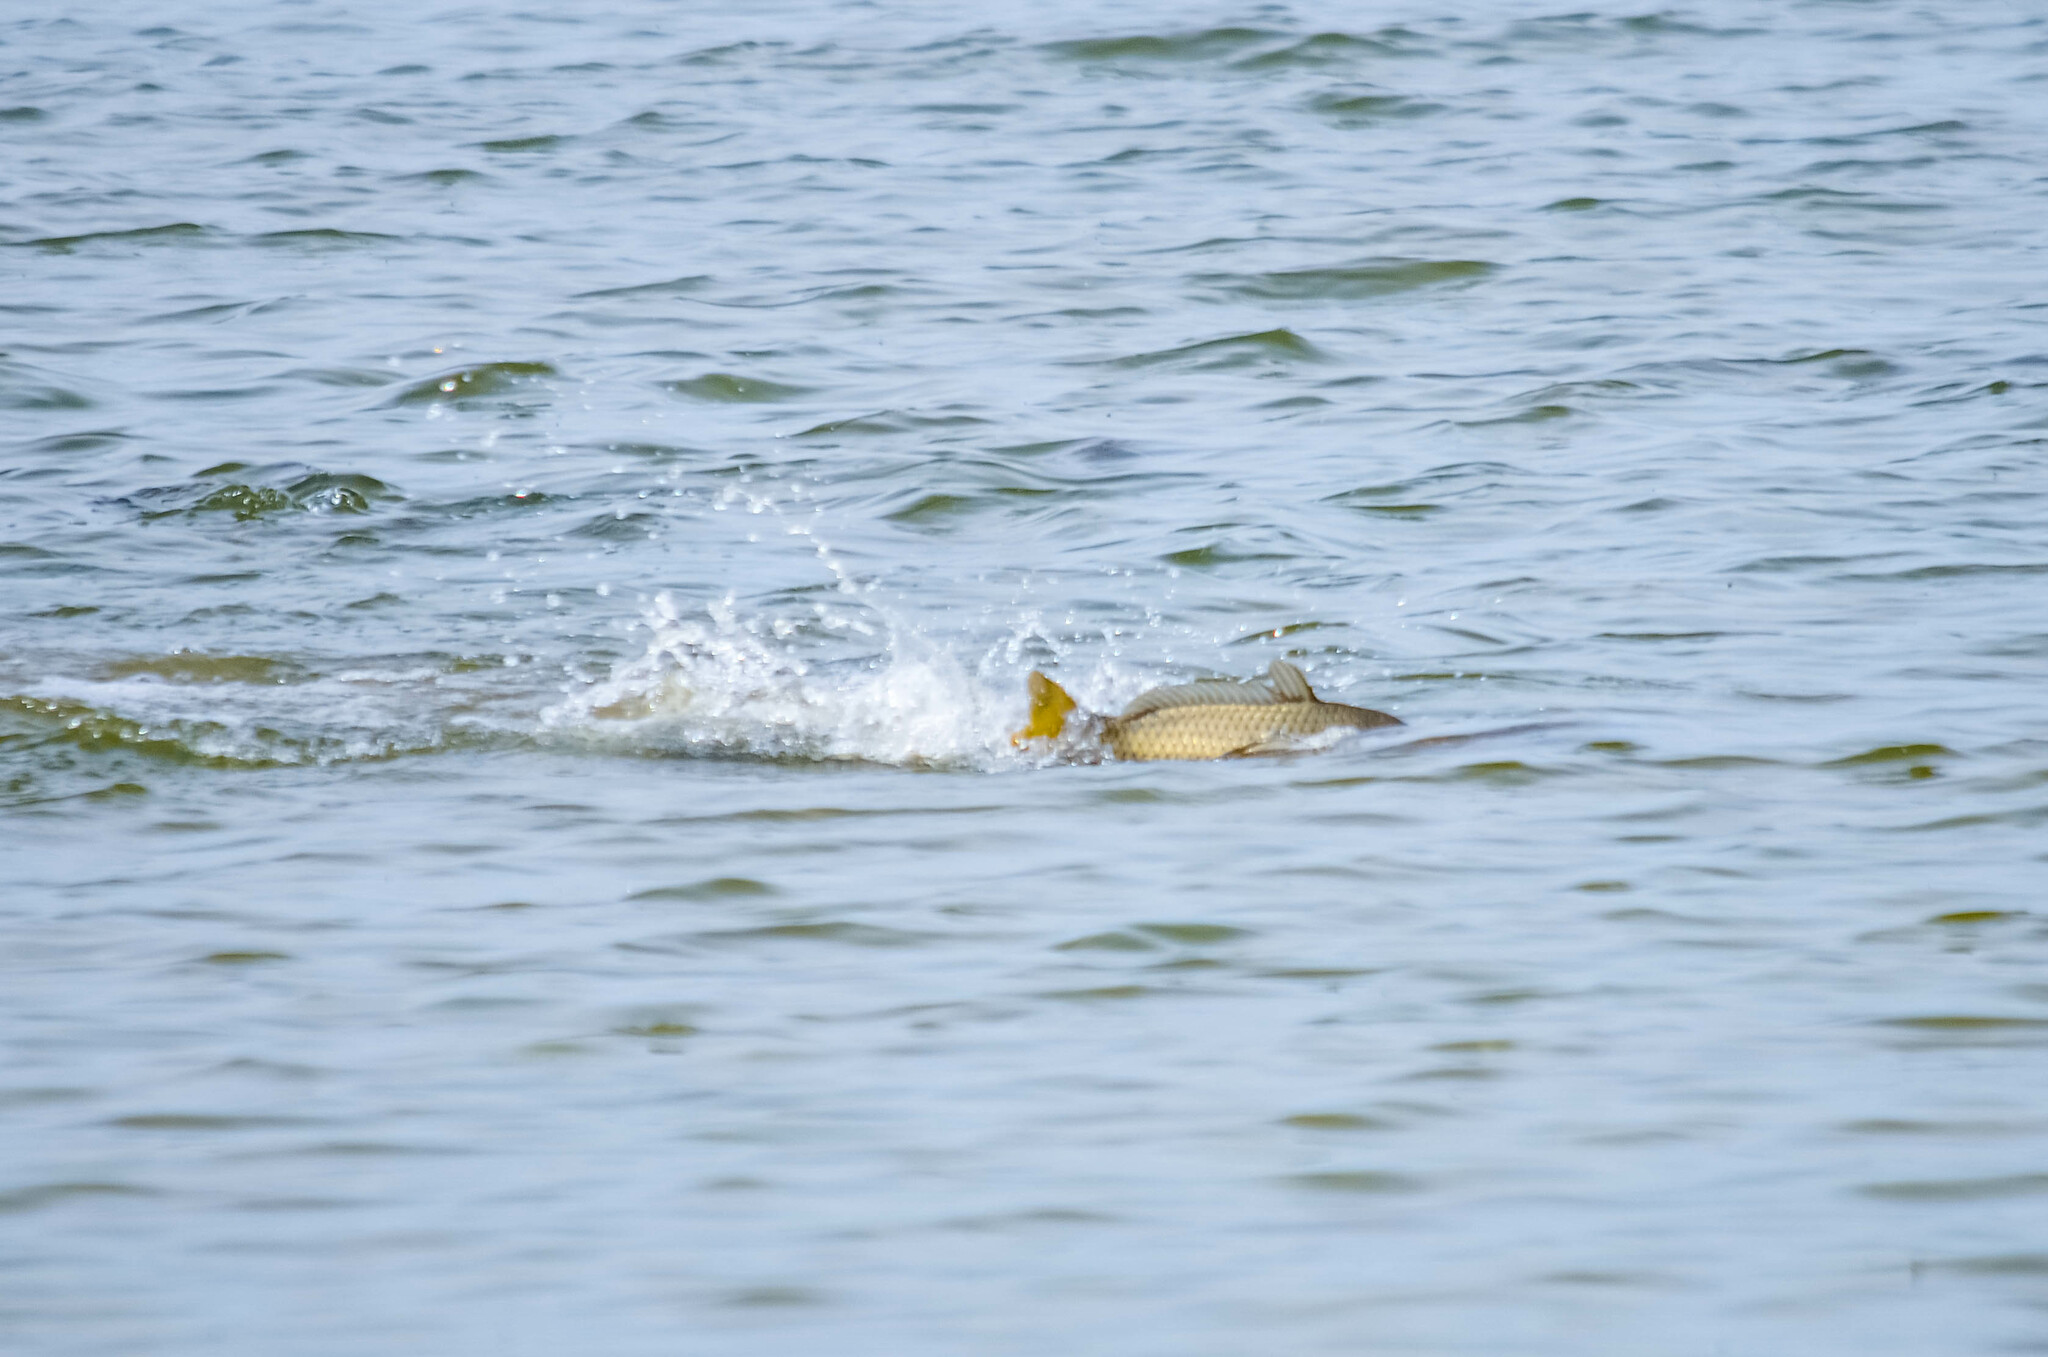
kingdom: Animalia
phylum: Chordata
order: Cypriniformes
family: Cyprinidae
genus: Cyprinus
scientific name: Cyprinus carpio
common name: Common carp
